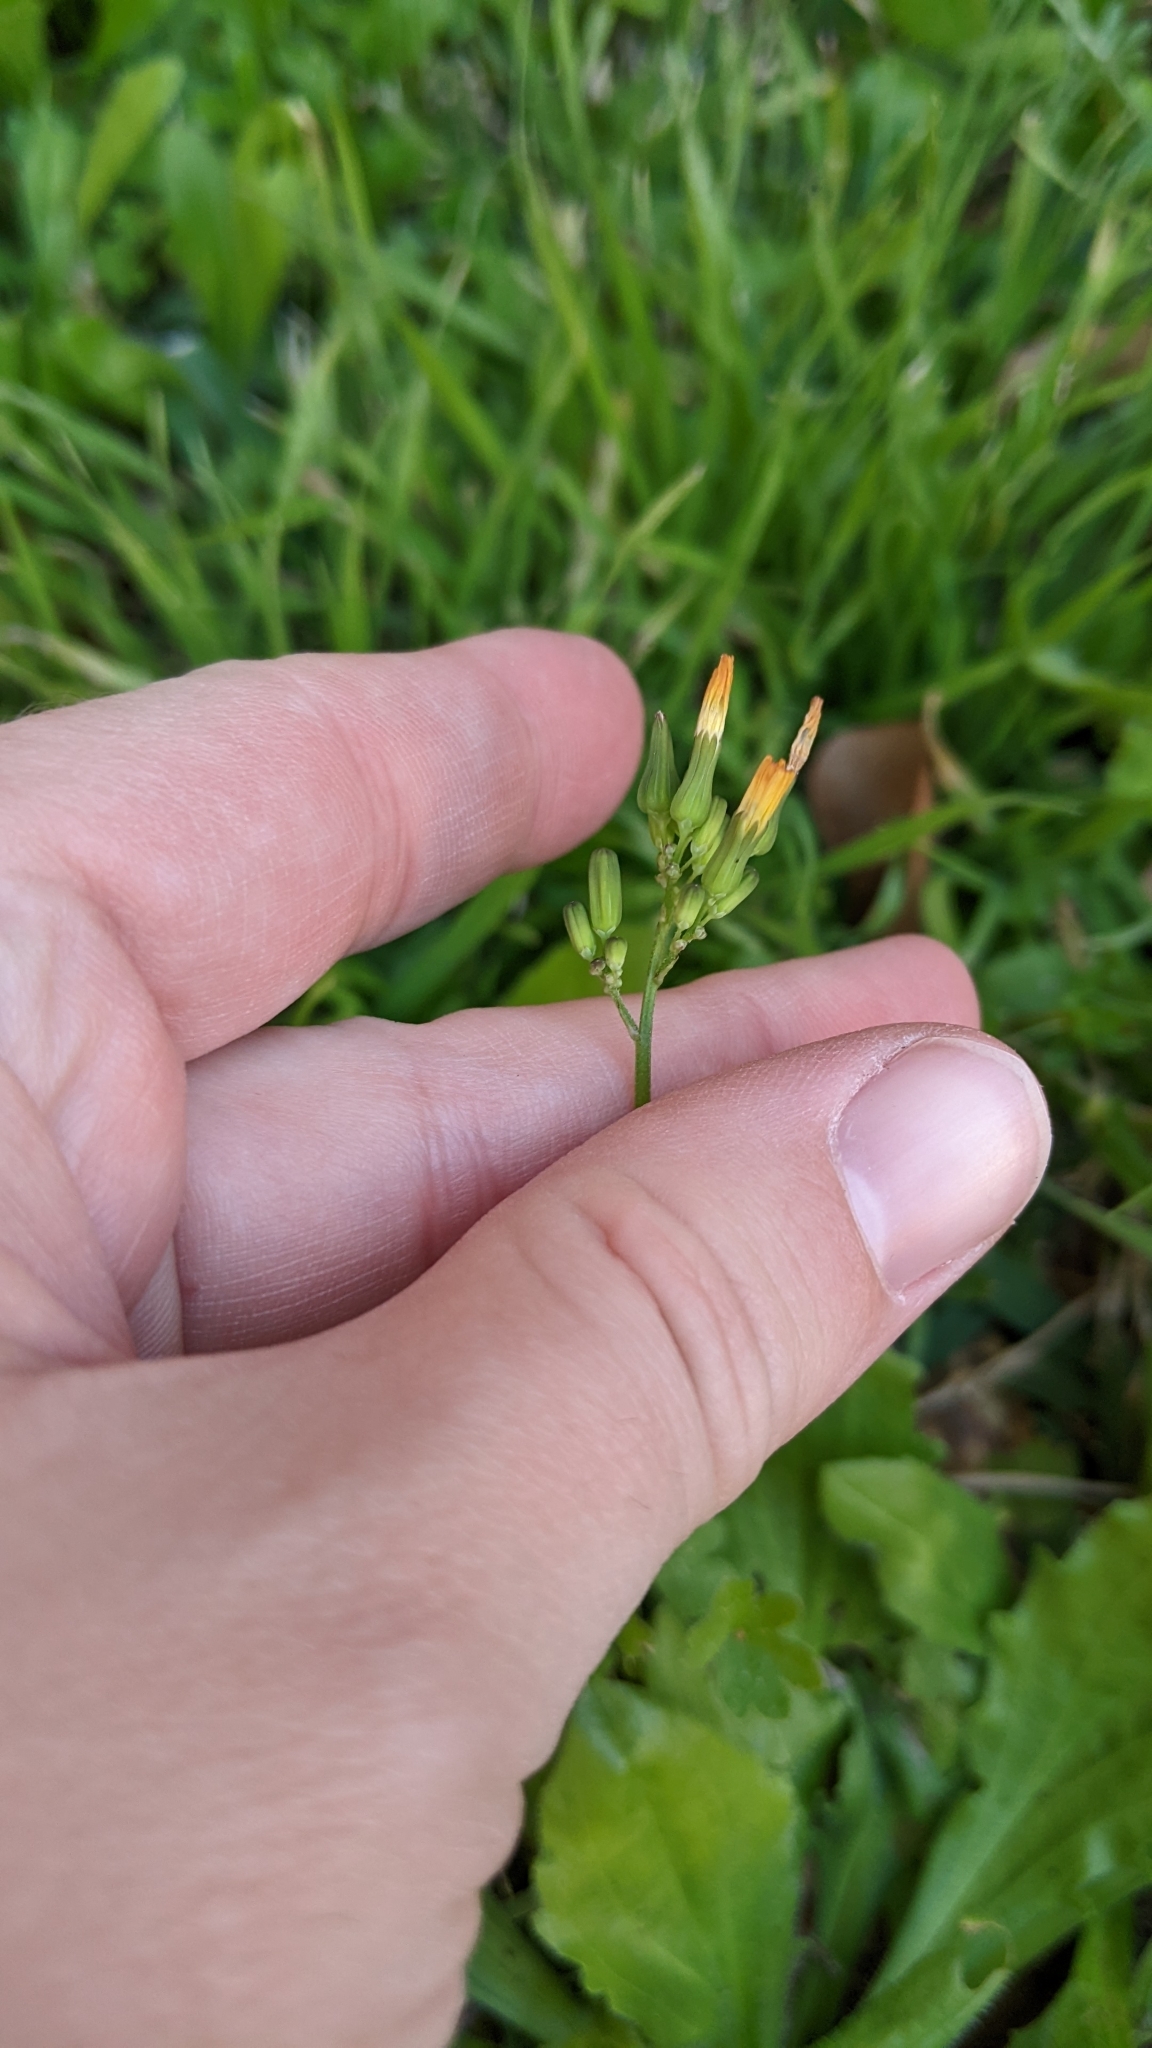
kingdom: Plantae
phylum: Tracheophyta
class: Magnoliopsida
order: Asterales
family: Asteraceae
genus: Youngia
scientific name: Youngia japonica
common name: Oriental false hawksbeard
